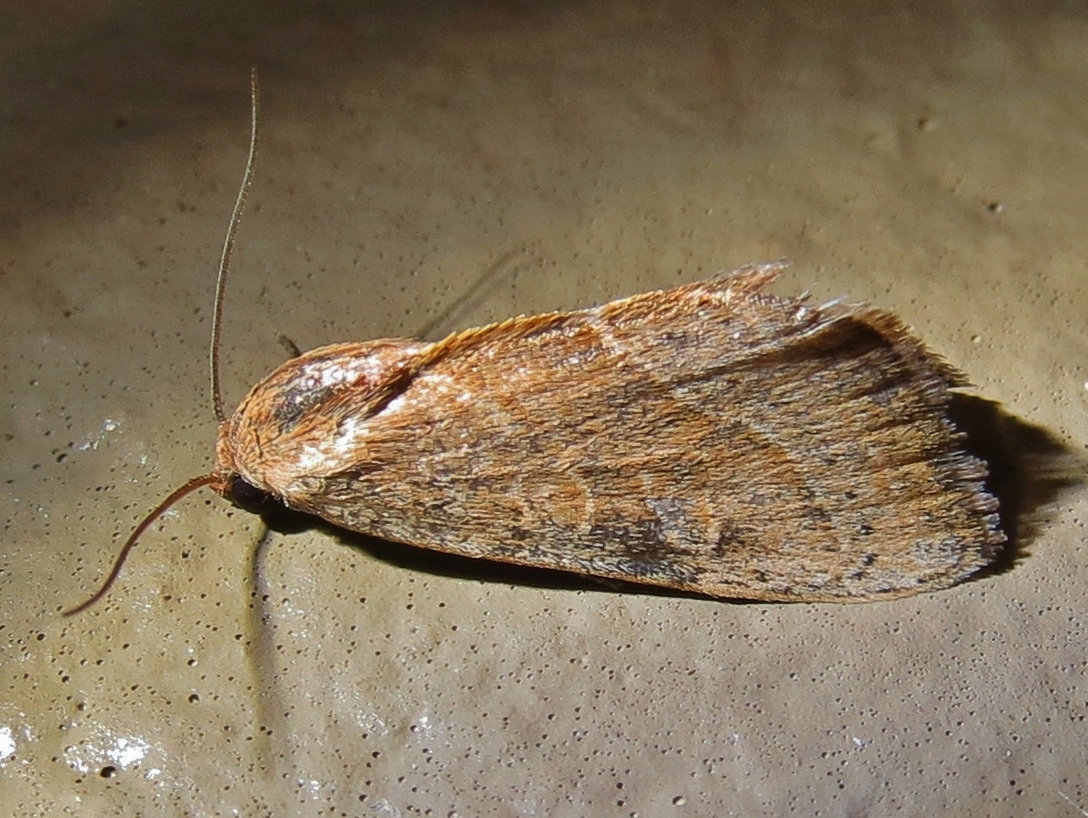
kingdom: Animalia
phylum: Arthropoda
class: Insecta
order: Lepidoptera
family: Noctuidae
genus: Galgula
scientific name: Galgula partita
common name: Wedgeling
